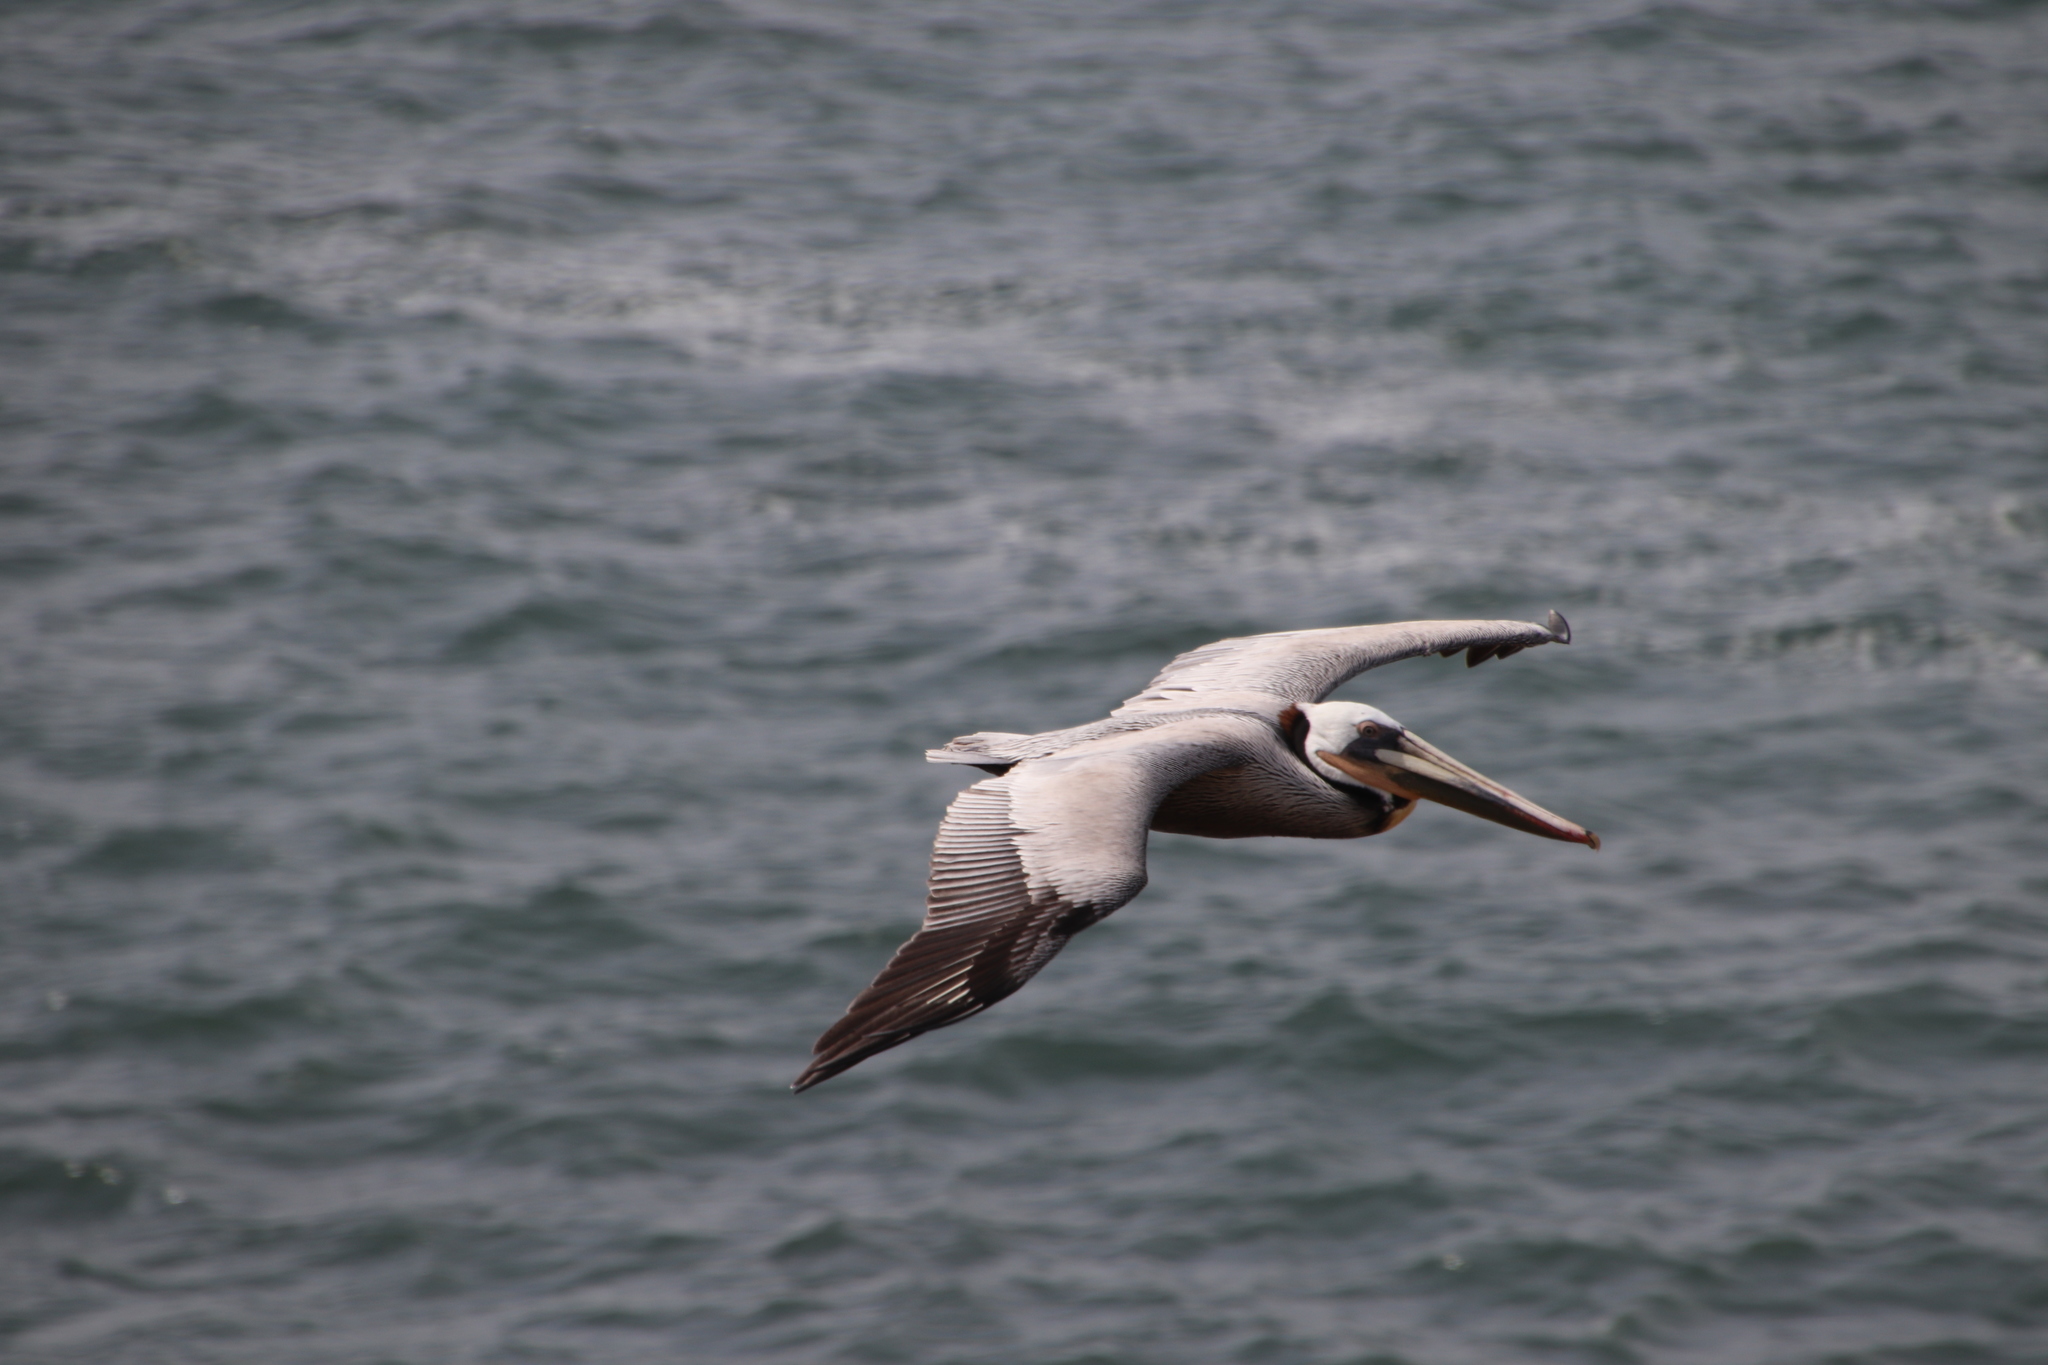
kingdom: Animalia
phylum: Chordata
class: Aves
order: Pelecaniformes
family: Pelecanidae
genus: Pelecanus
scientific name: Pelecanus occidentalis
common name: Brown pelican
